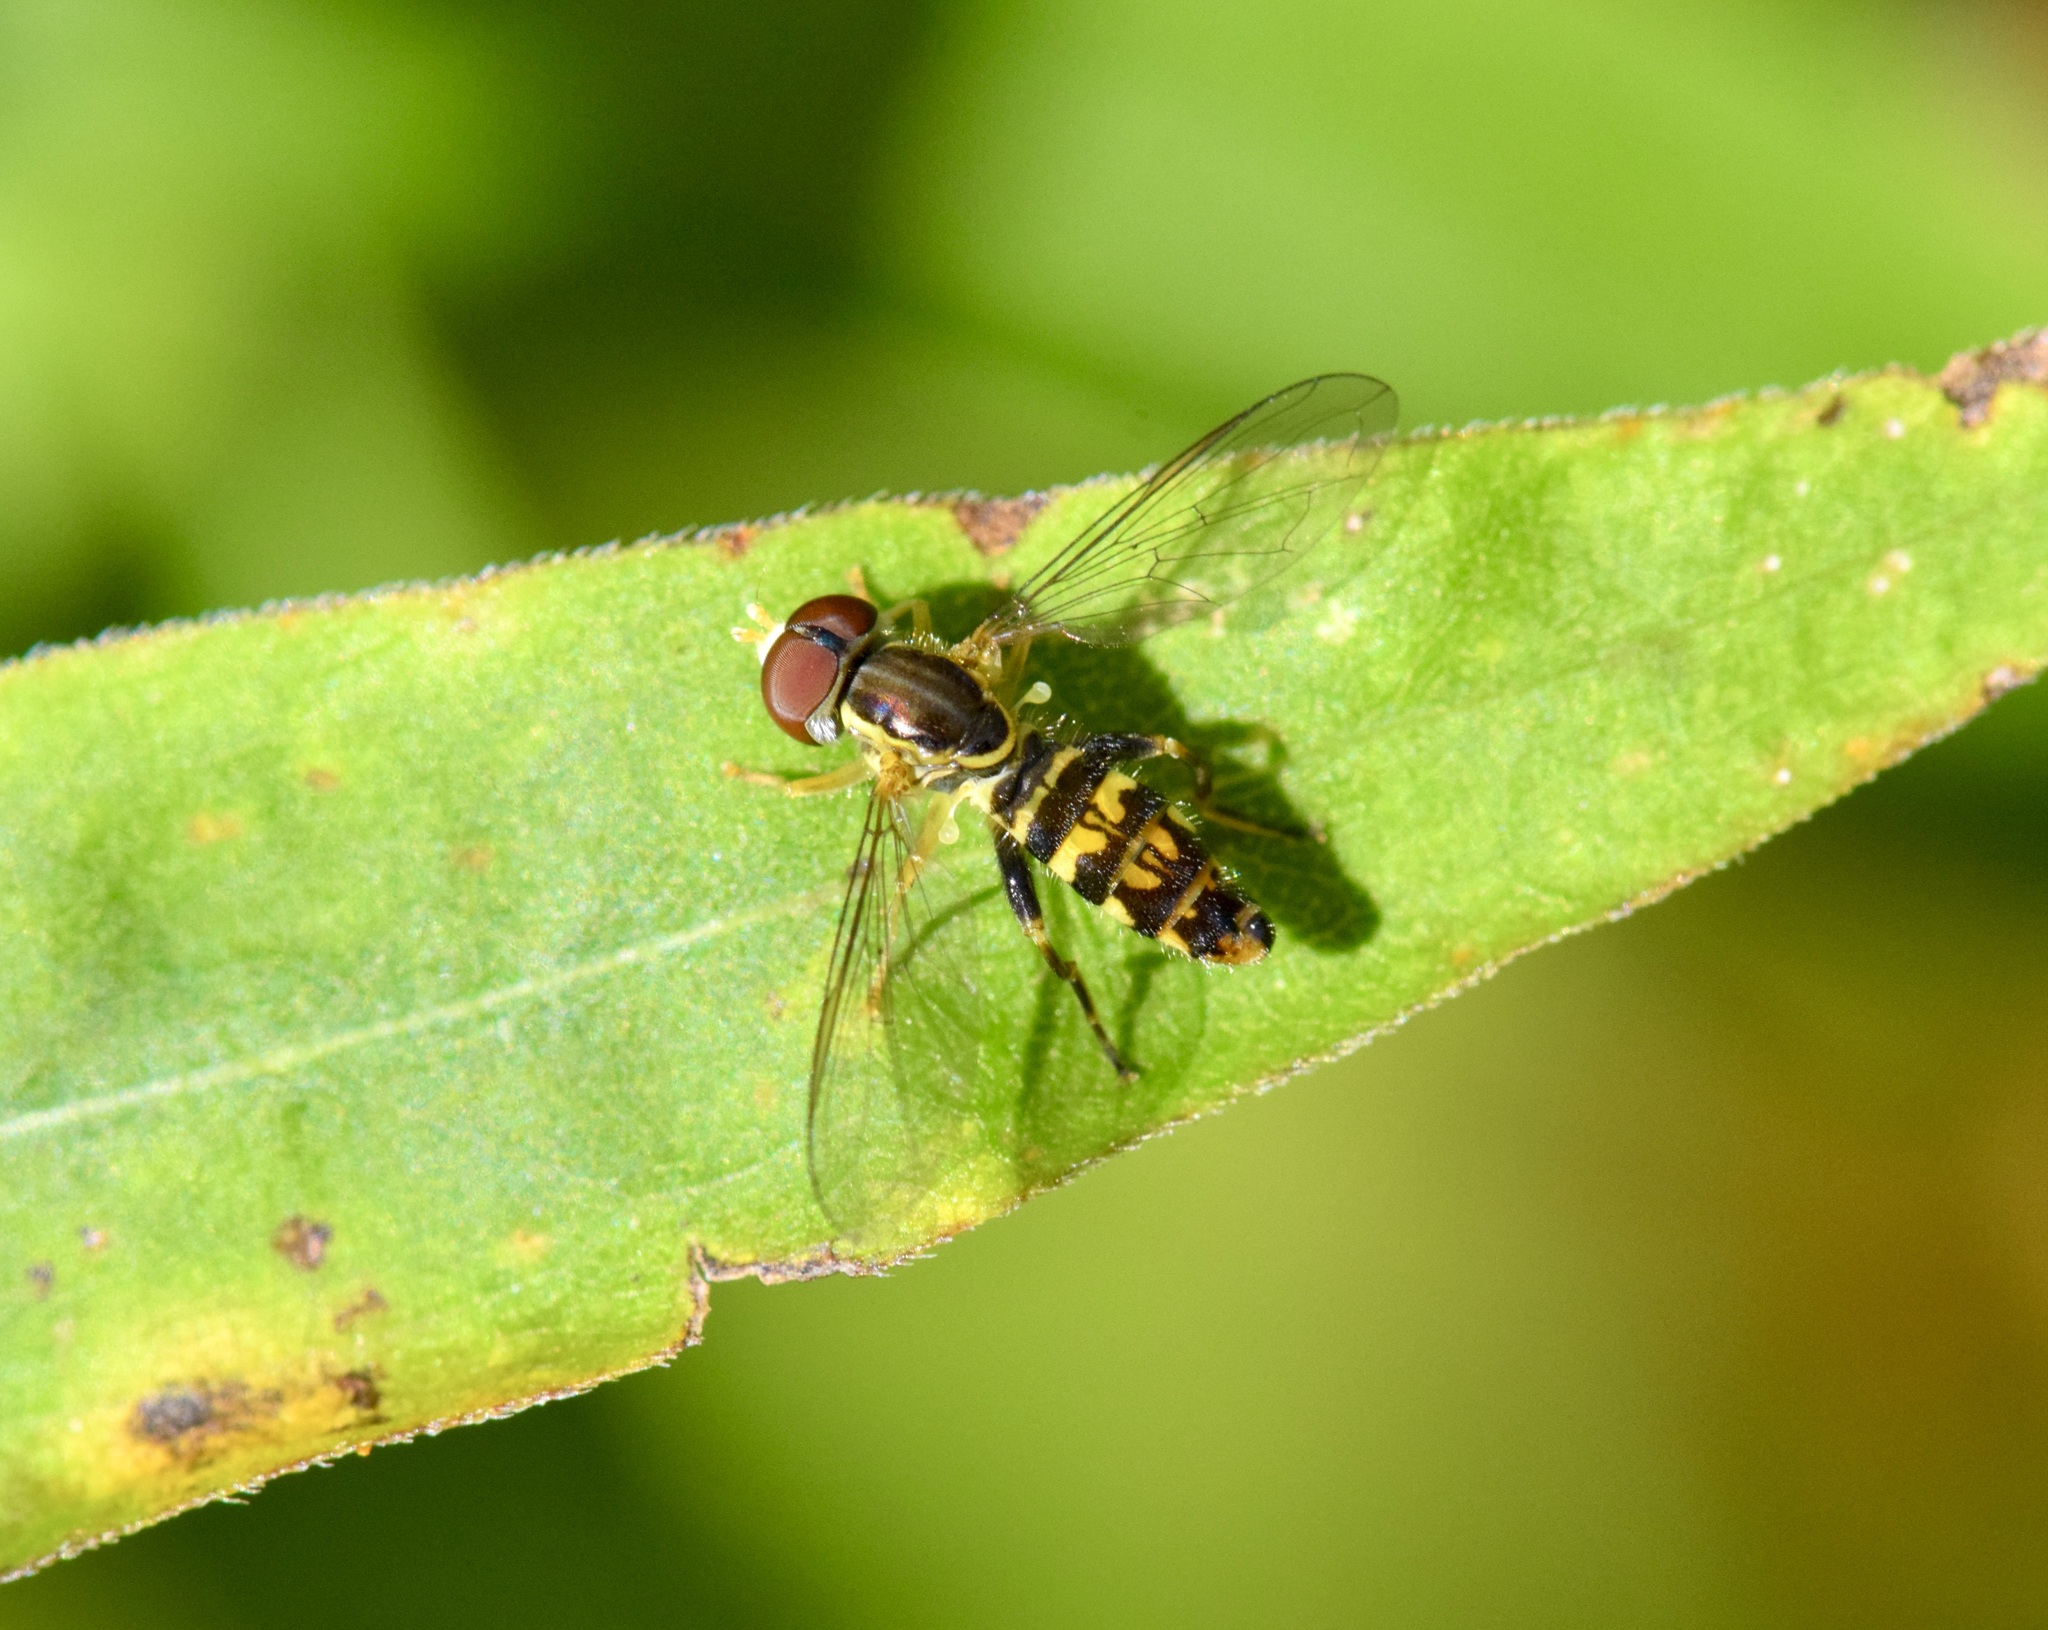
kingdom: Animalia
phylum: Arthropoda
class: Insecta
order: Diptera
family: Syrphidae
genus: Toxomerus
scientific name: Toxomerus geminatus
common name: Eastern calligrapher
